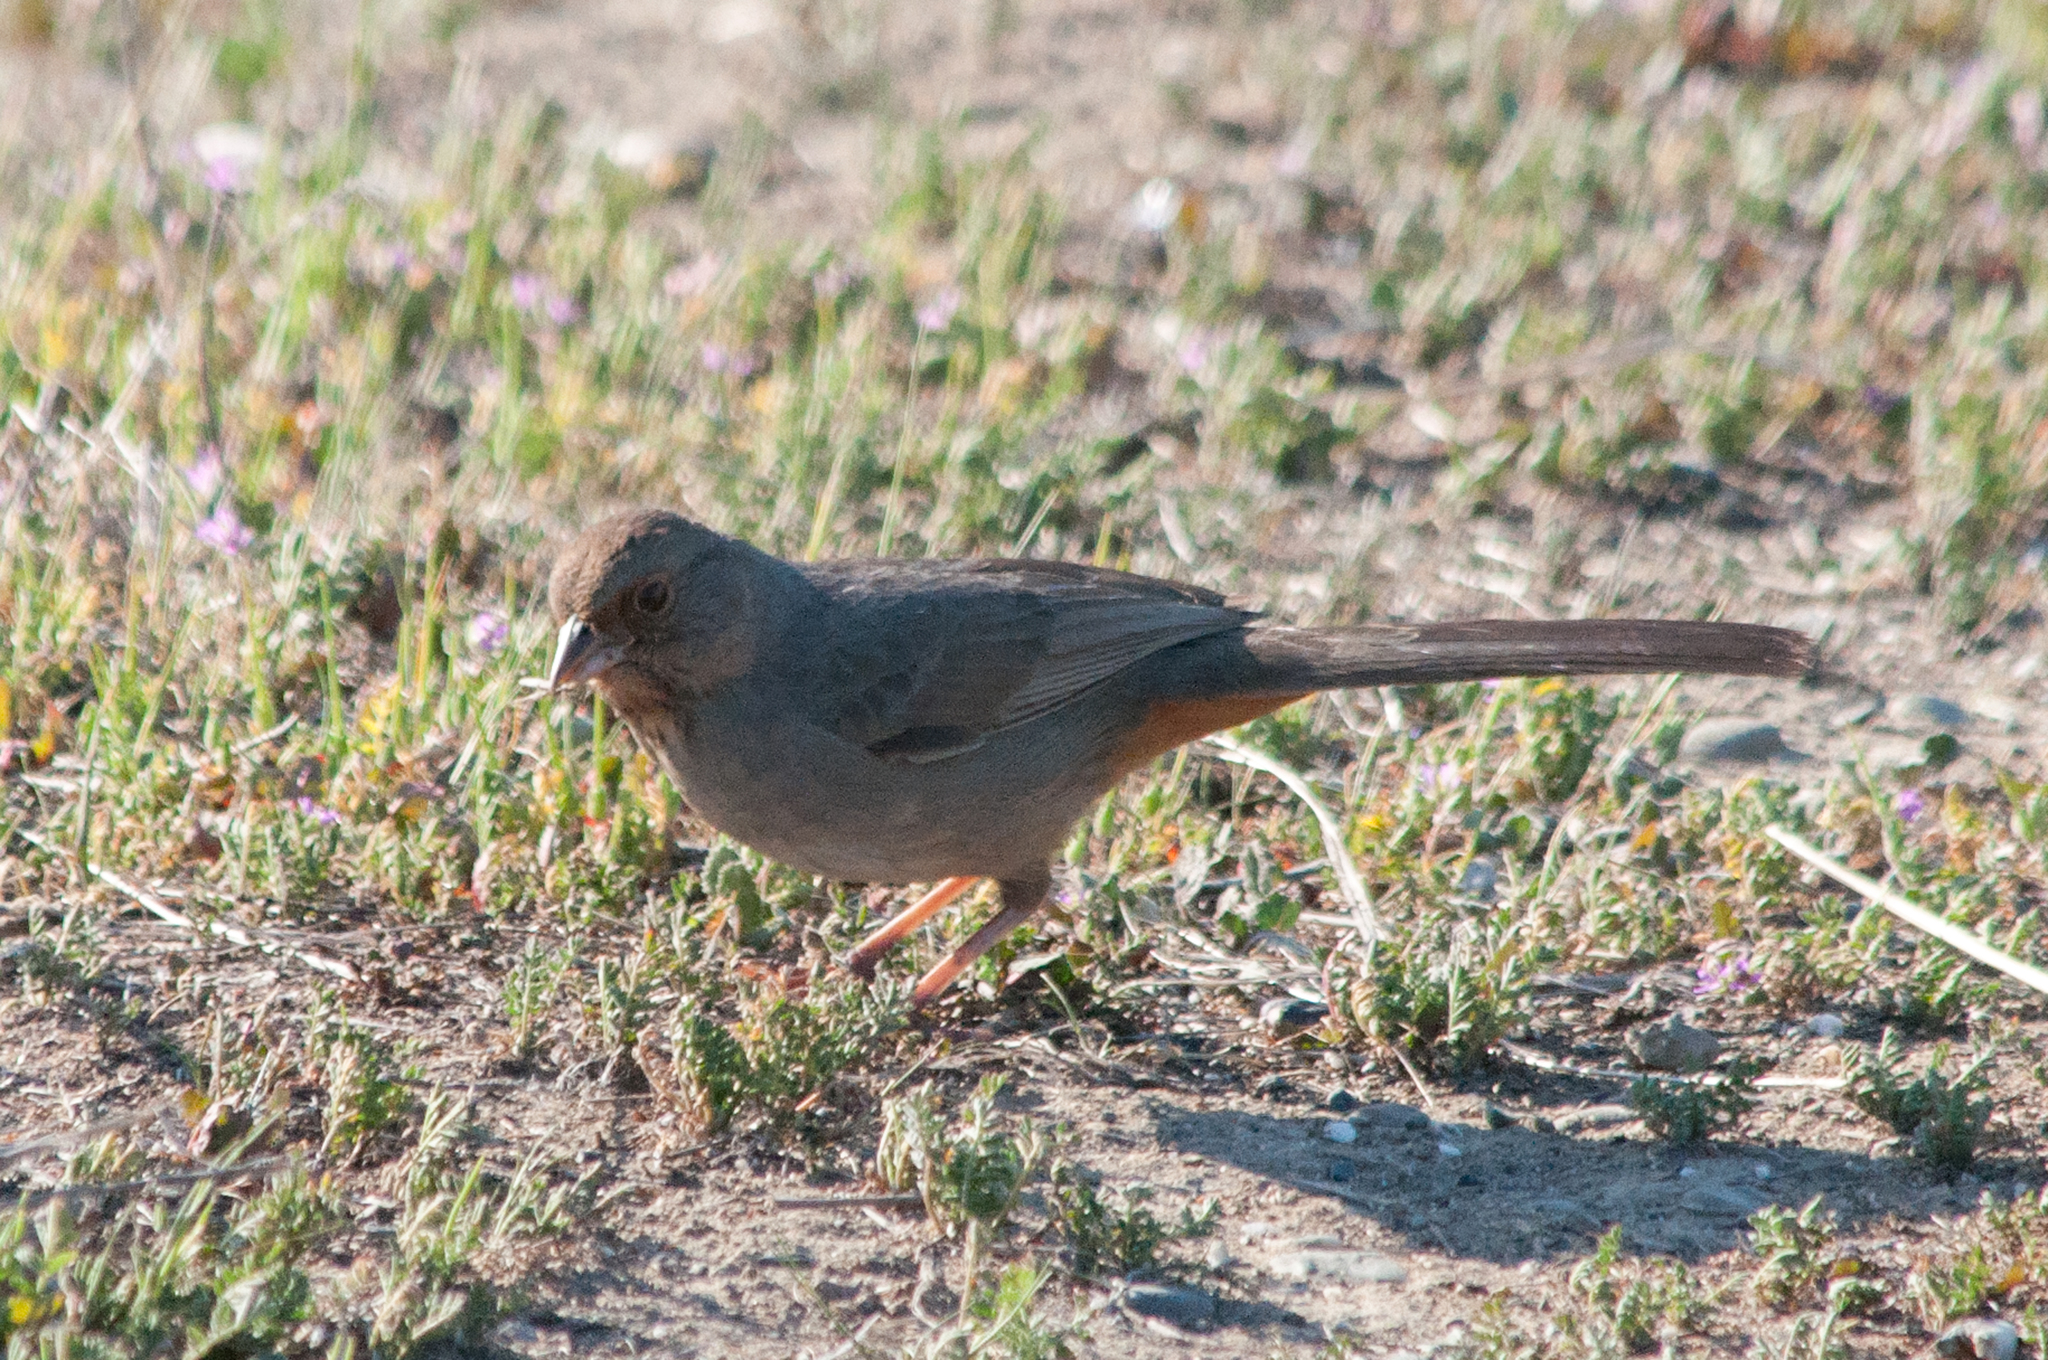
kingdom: Animalia
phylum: Chordata
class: Aves
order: Passeriformes
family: Passerellidae
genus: Melozone
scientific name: Melozone crissalis
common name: California towhee
